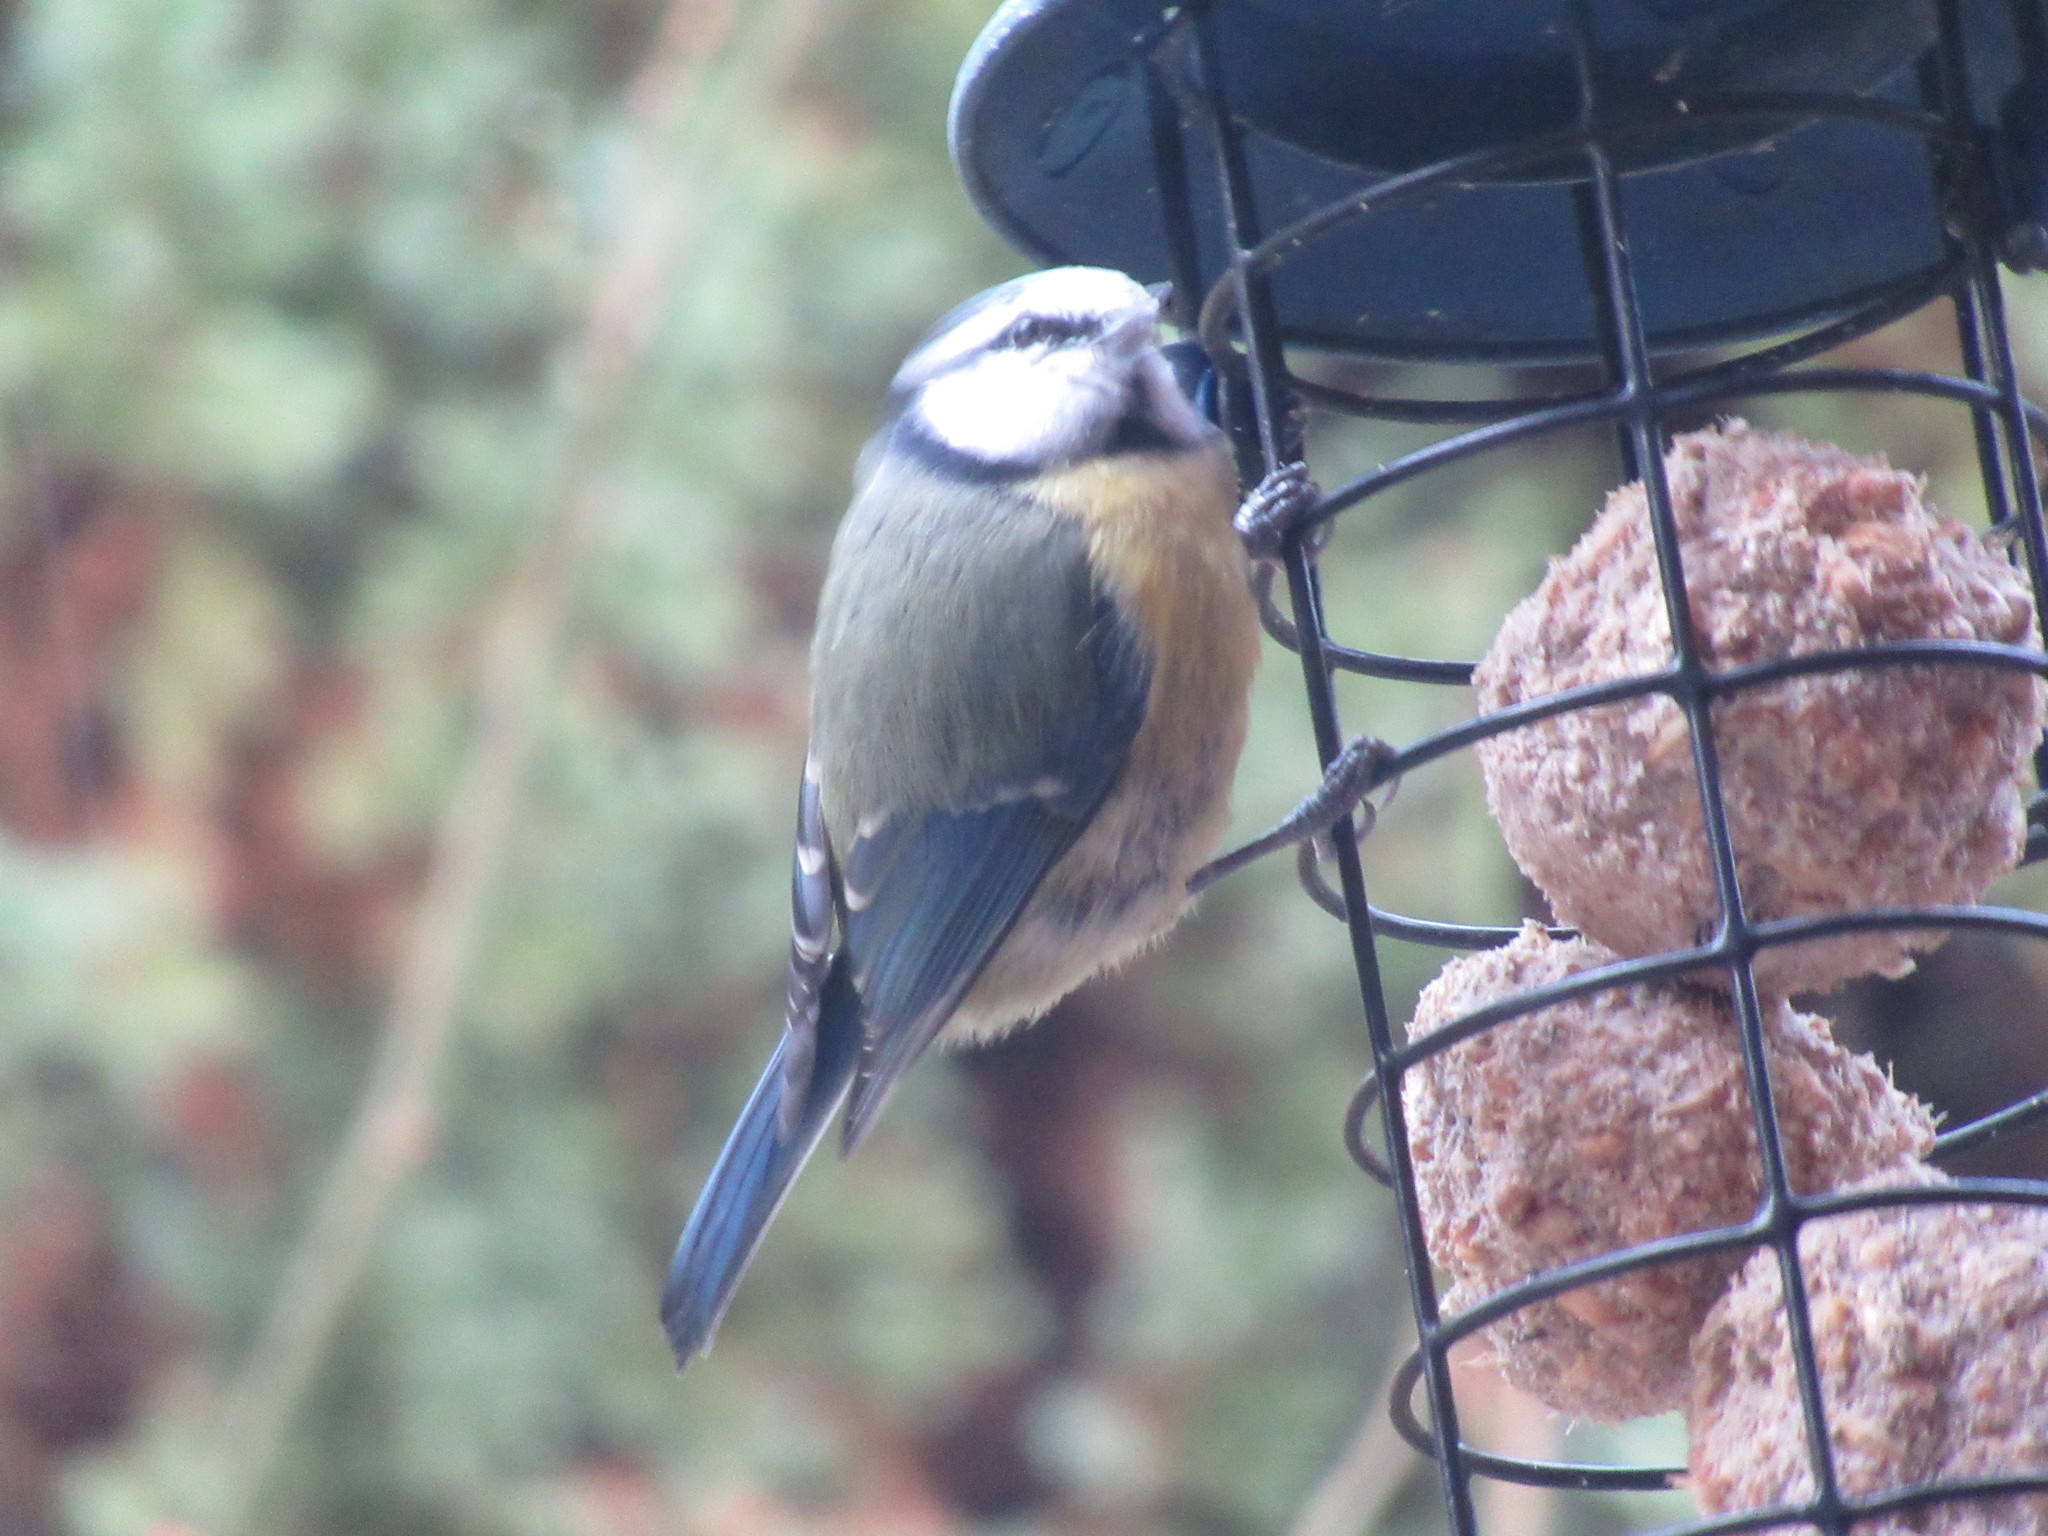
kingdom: Animalia
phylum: Chordata
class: Aves
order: Passeriformes
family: Paridae
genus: Cyanistes
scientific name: Cyanistes caeruleus
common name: Eurasian blue tit
